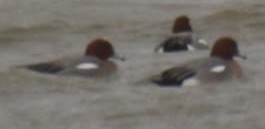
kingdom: Animalia
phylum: Chordata
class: Aves
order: Anseriformes
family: Anatidae
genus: Mareca
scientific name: Mareca penelope
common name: Eurasian wigeon
